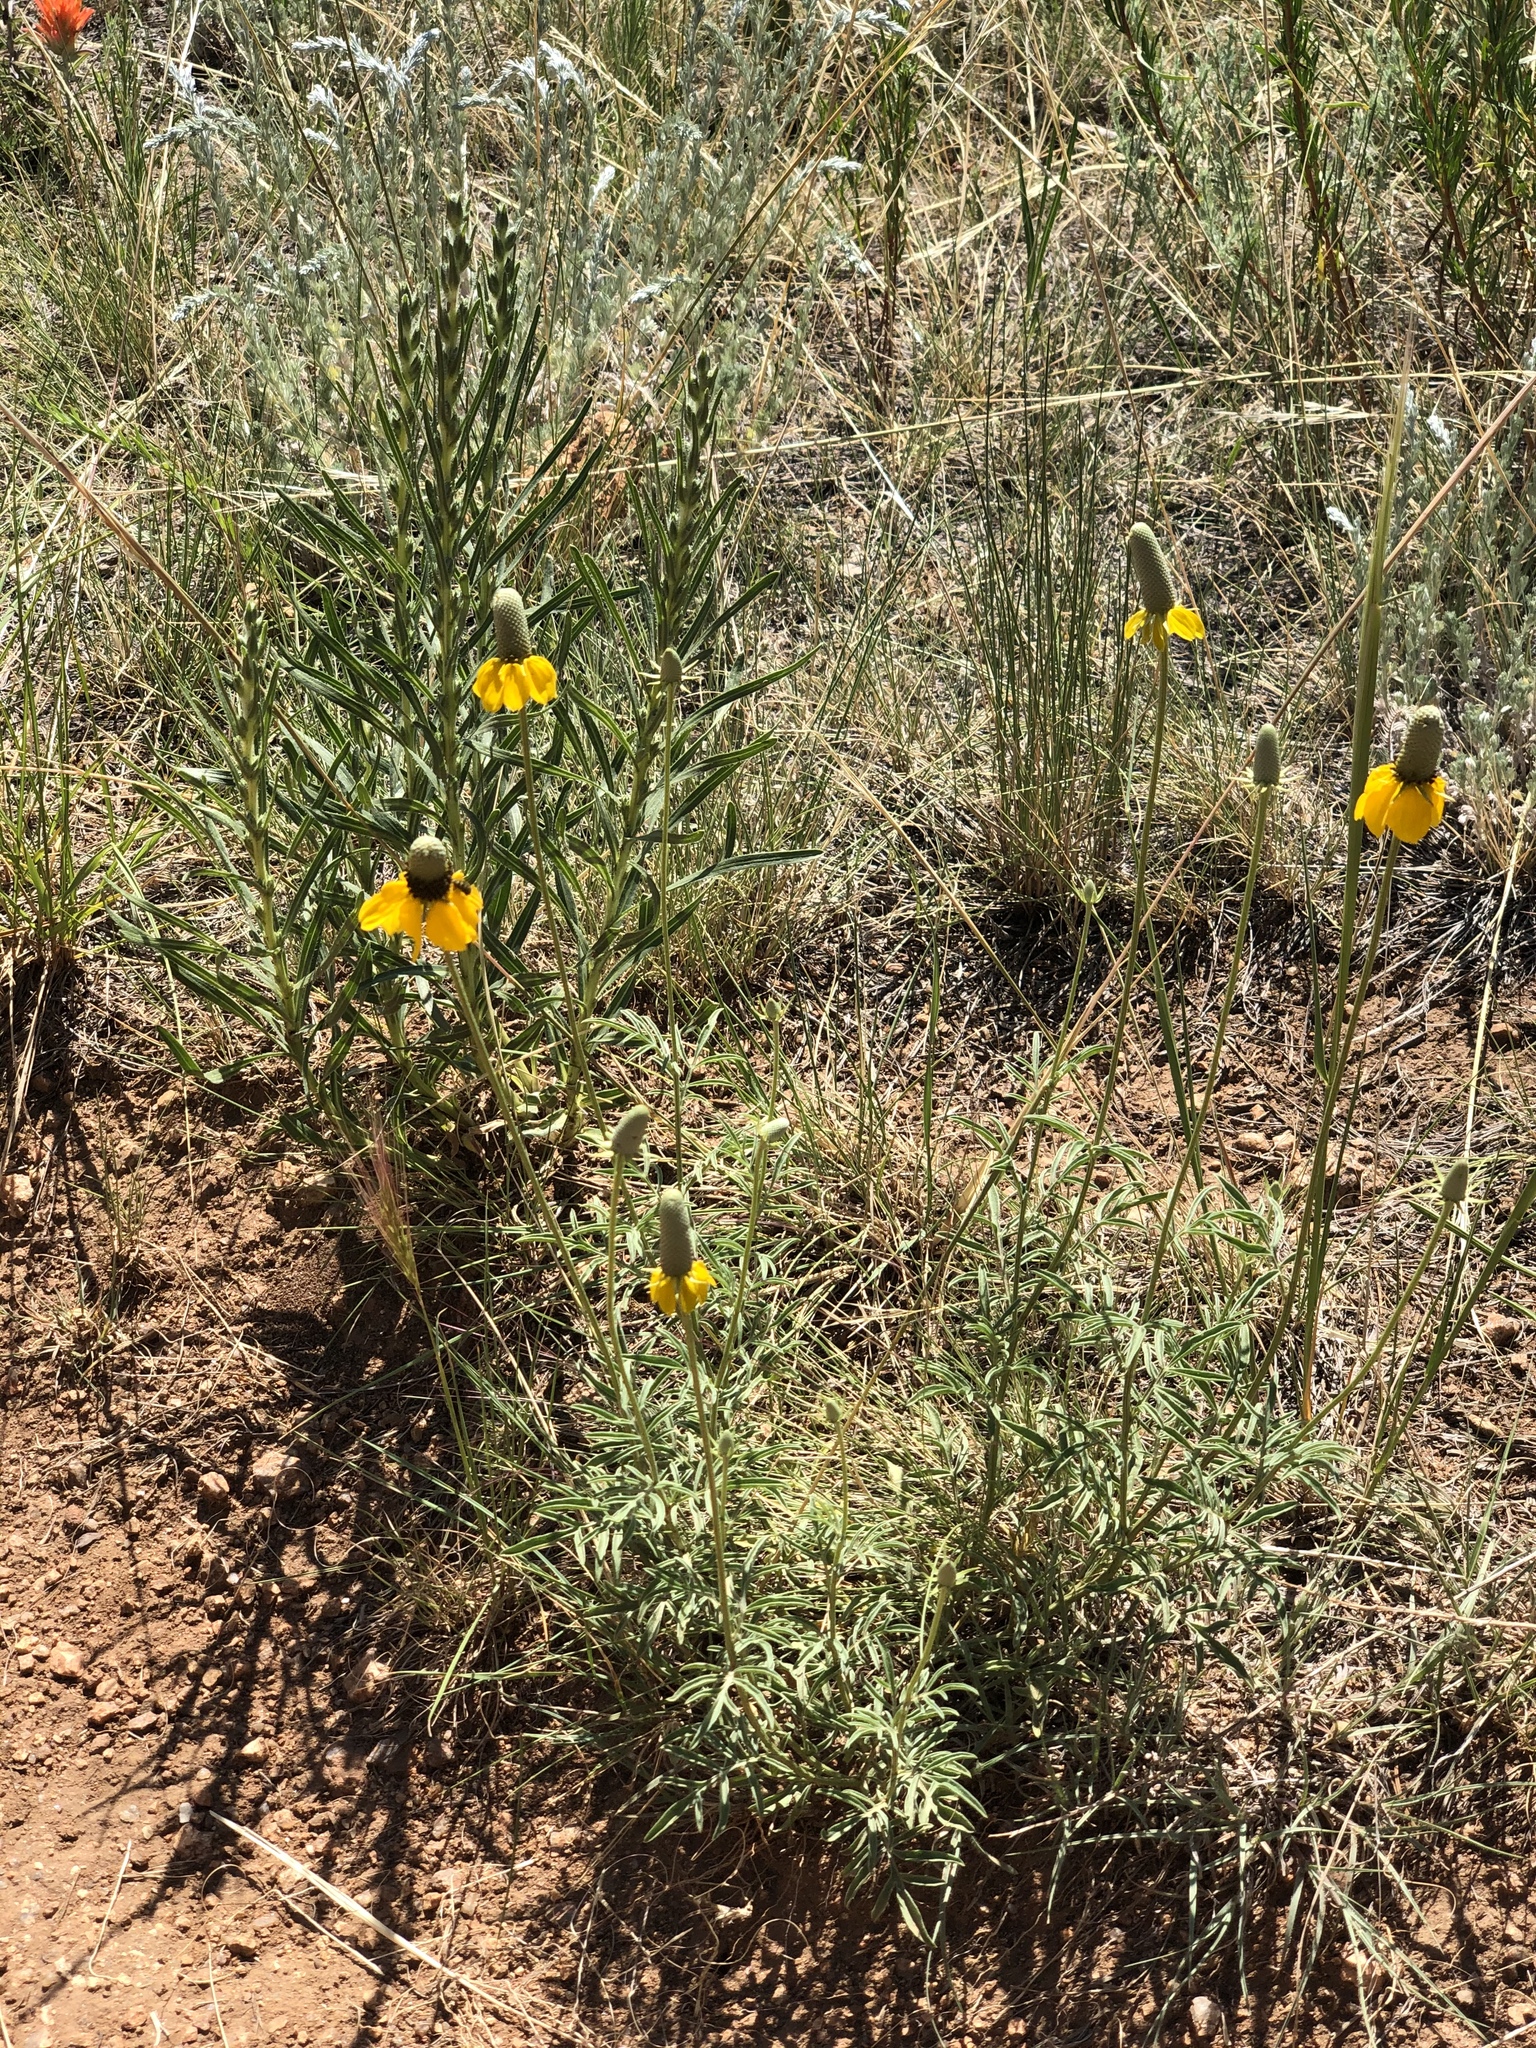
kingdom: Plantae
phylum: Tracheophyta
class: Magnoliopsida
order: Asterales
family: Asteraceae
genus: Ratibida
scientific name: Ratibida columnifera
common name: Prairie coneflower
